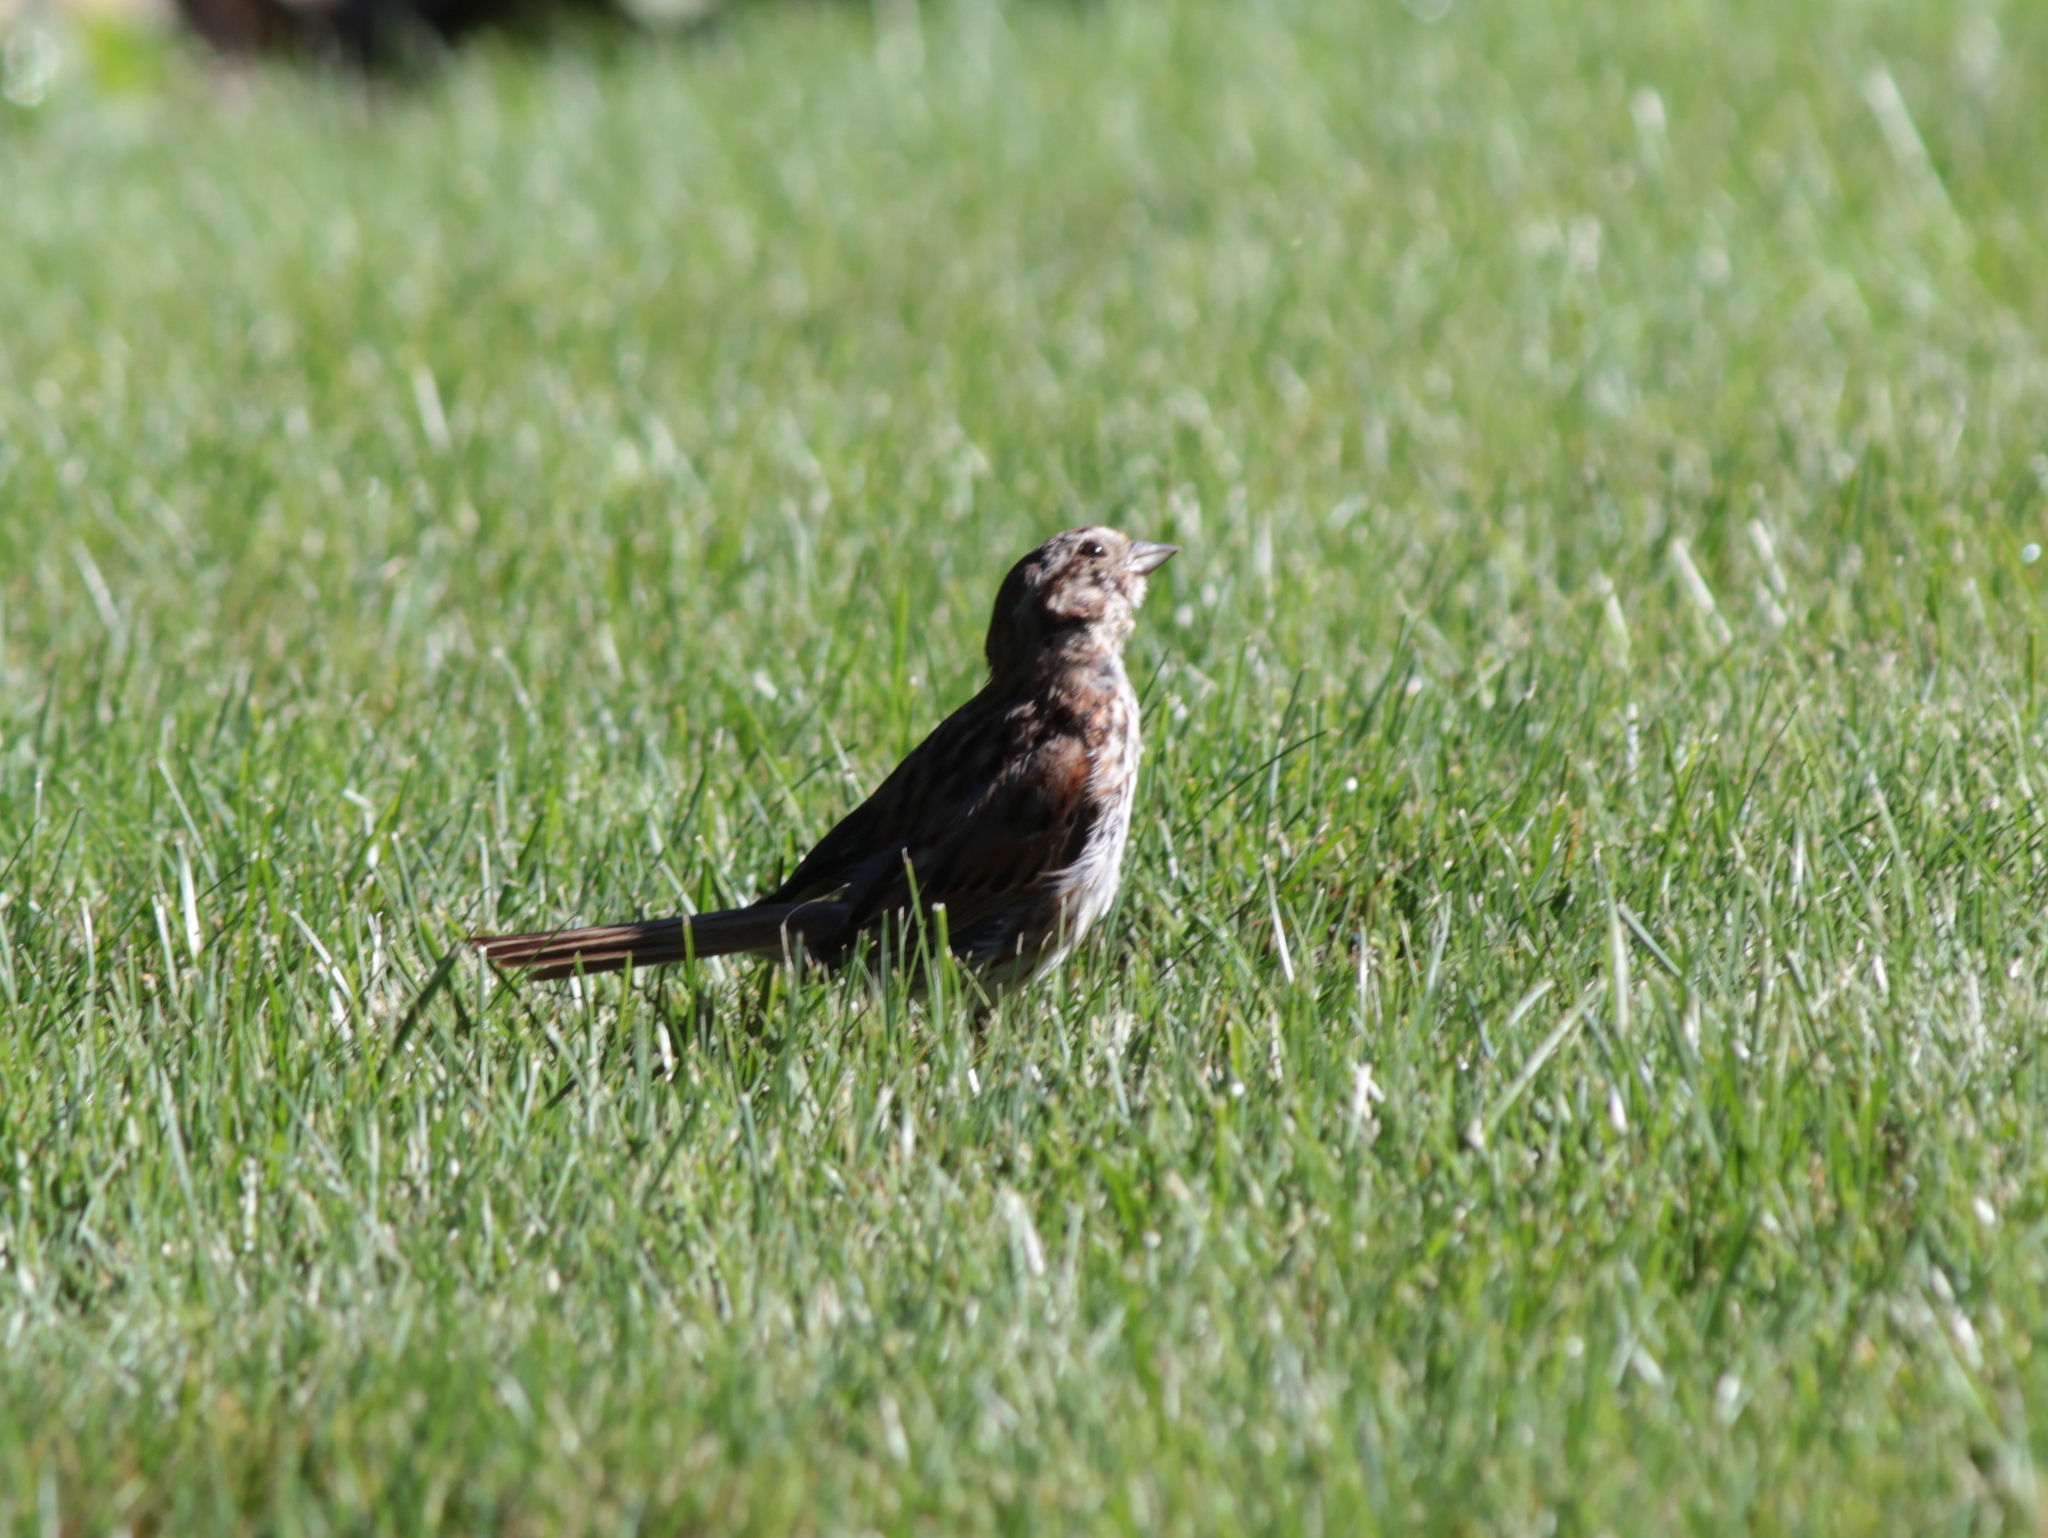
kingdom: Animalia
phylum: Chordata
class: Aves
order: Passeriformes
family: Passerellidae
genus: Melospiza
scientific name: Melospiza melodia
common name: Song sparrow
